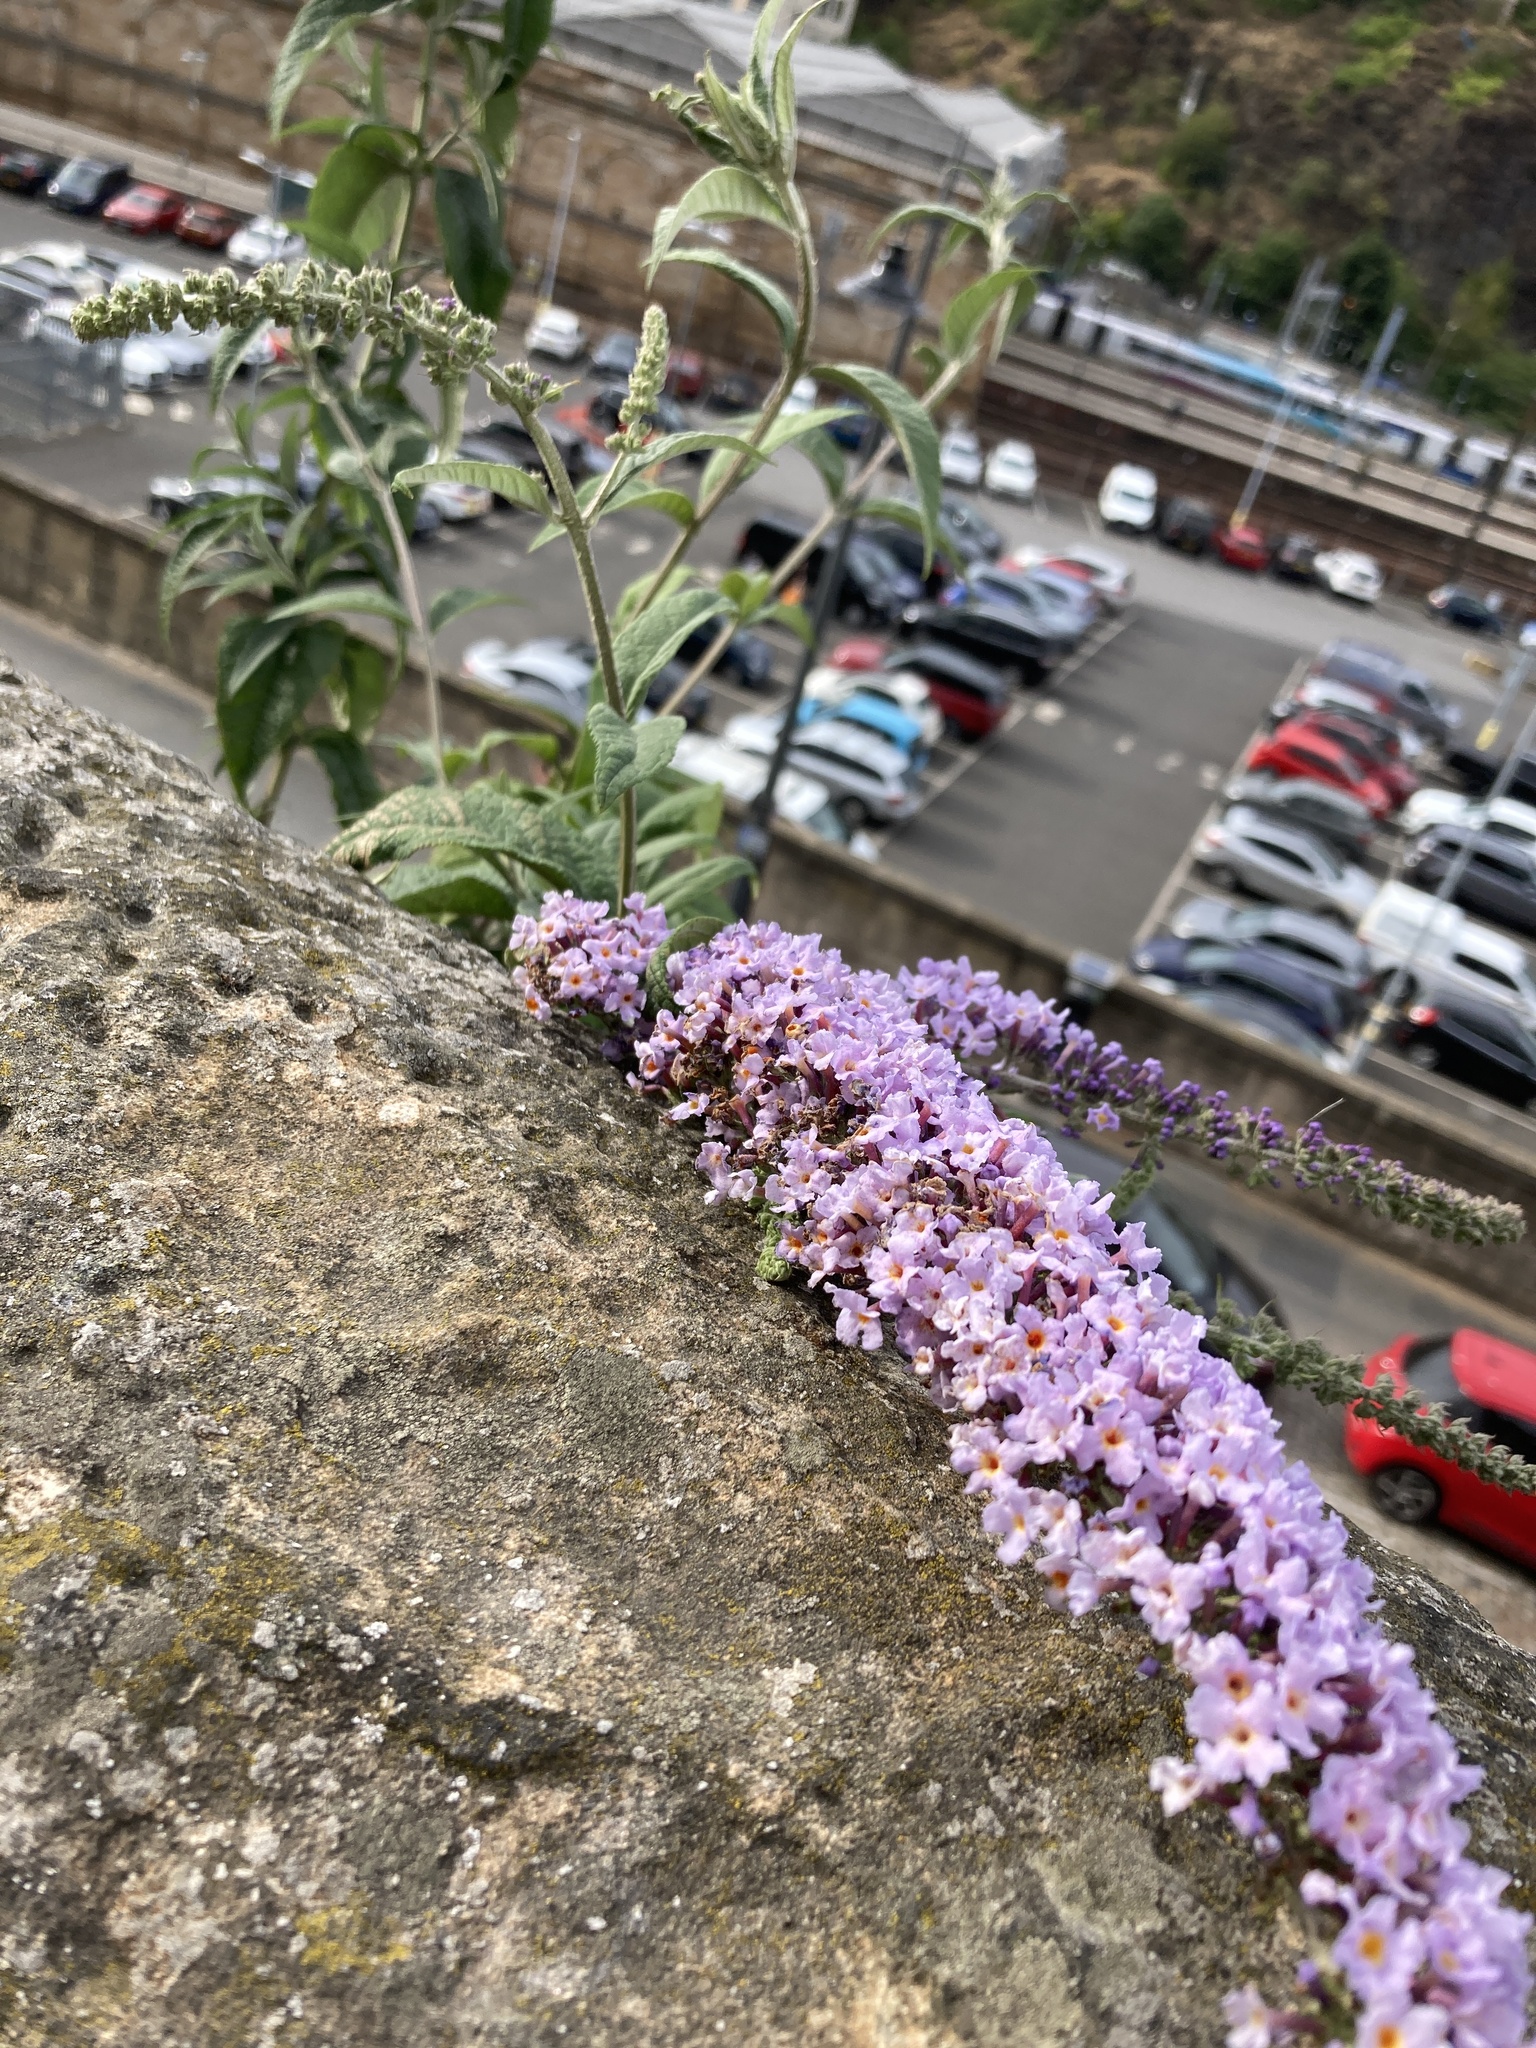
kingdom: Plantae
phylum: Tracheophyta
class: Magnoliopsida
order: Lamiales
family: Scrophulariaceae
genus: Buddleja
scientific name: Buddleja davidii
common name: Butterfly-bush
